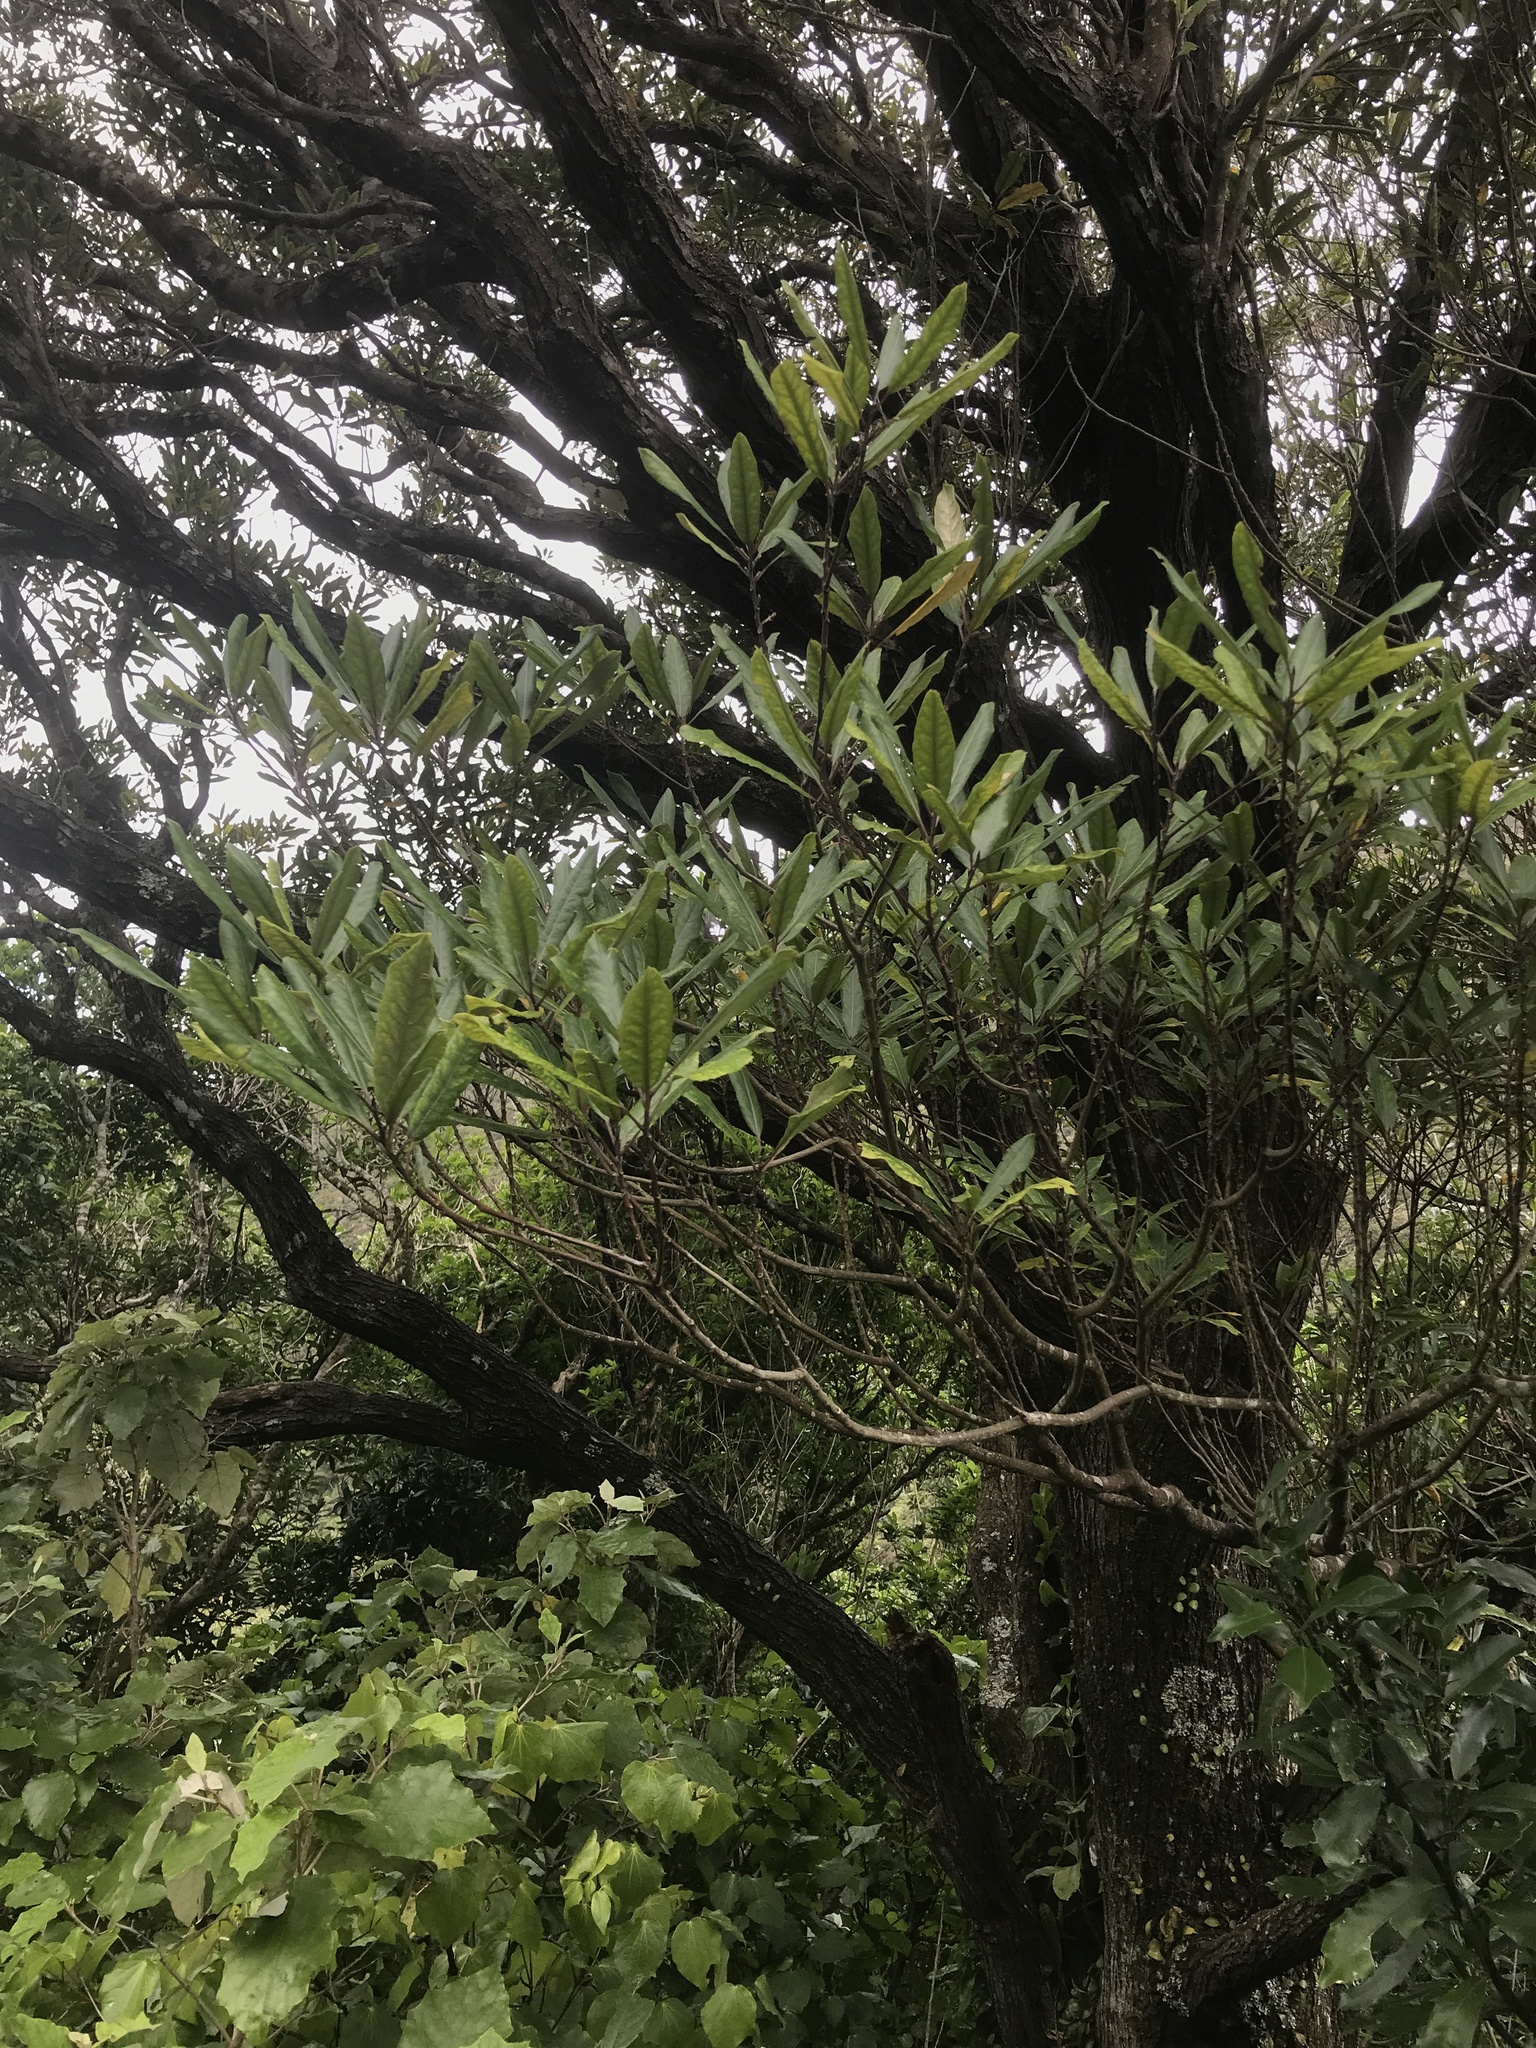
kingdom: Plantae
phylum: Tracheophyta
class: Magnoliopsida
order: Oxalidales
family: Elaeocarpaceae
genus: Elaeocarpus
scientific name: Elaeocarpus dentatus
